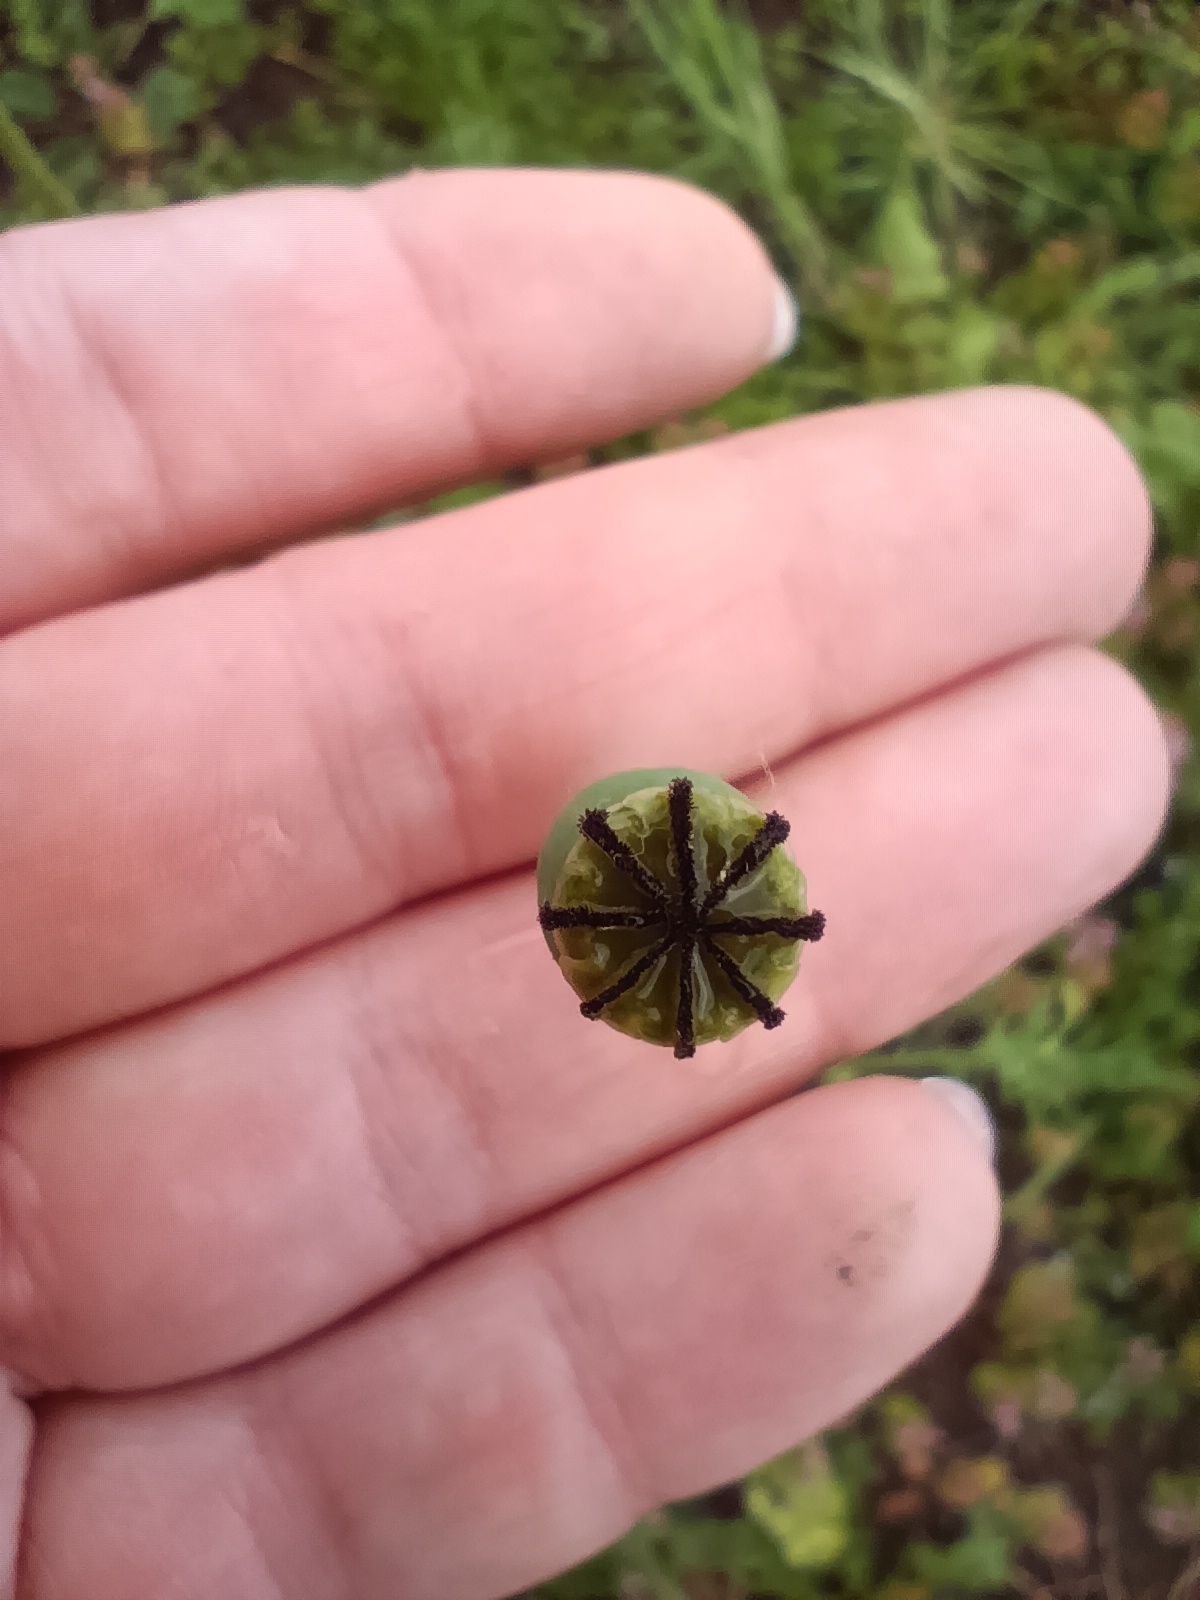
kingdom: Plantae
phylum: Tracheophyta
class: Magnoliopsida
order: Ranunculales
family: Papaveraceae
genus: Papaver
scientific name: Papaver dubium
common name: Long-headed poppy
